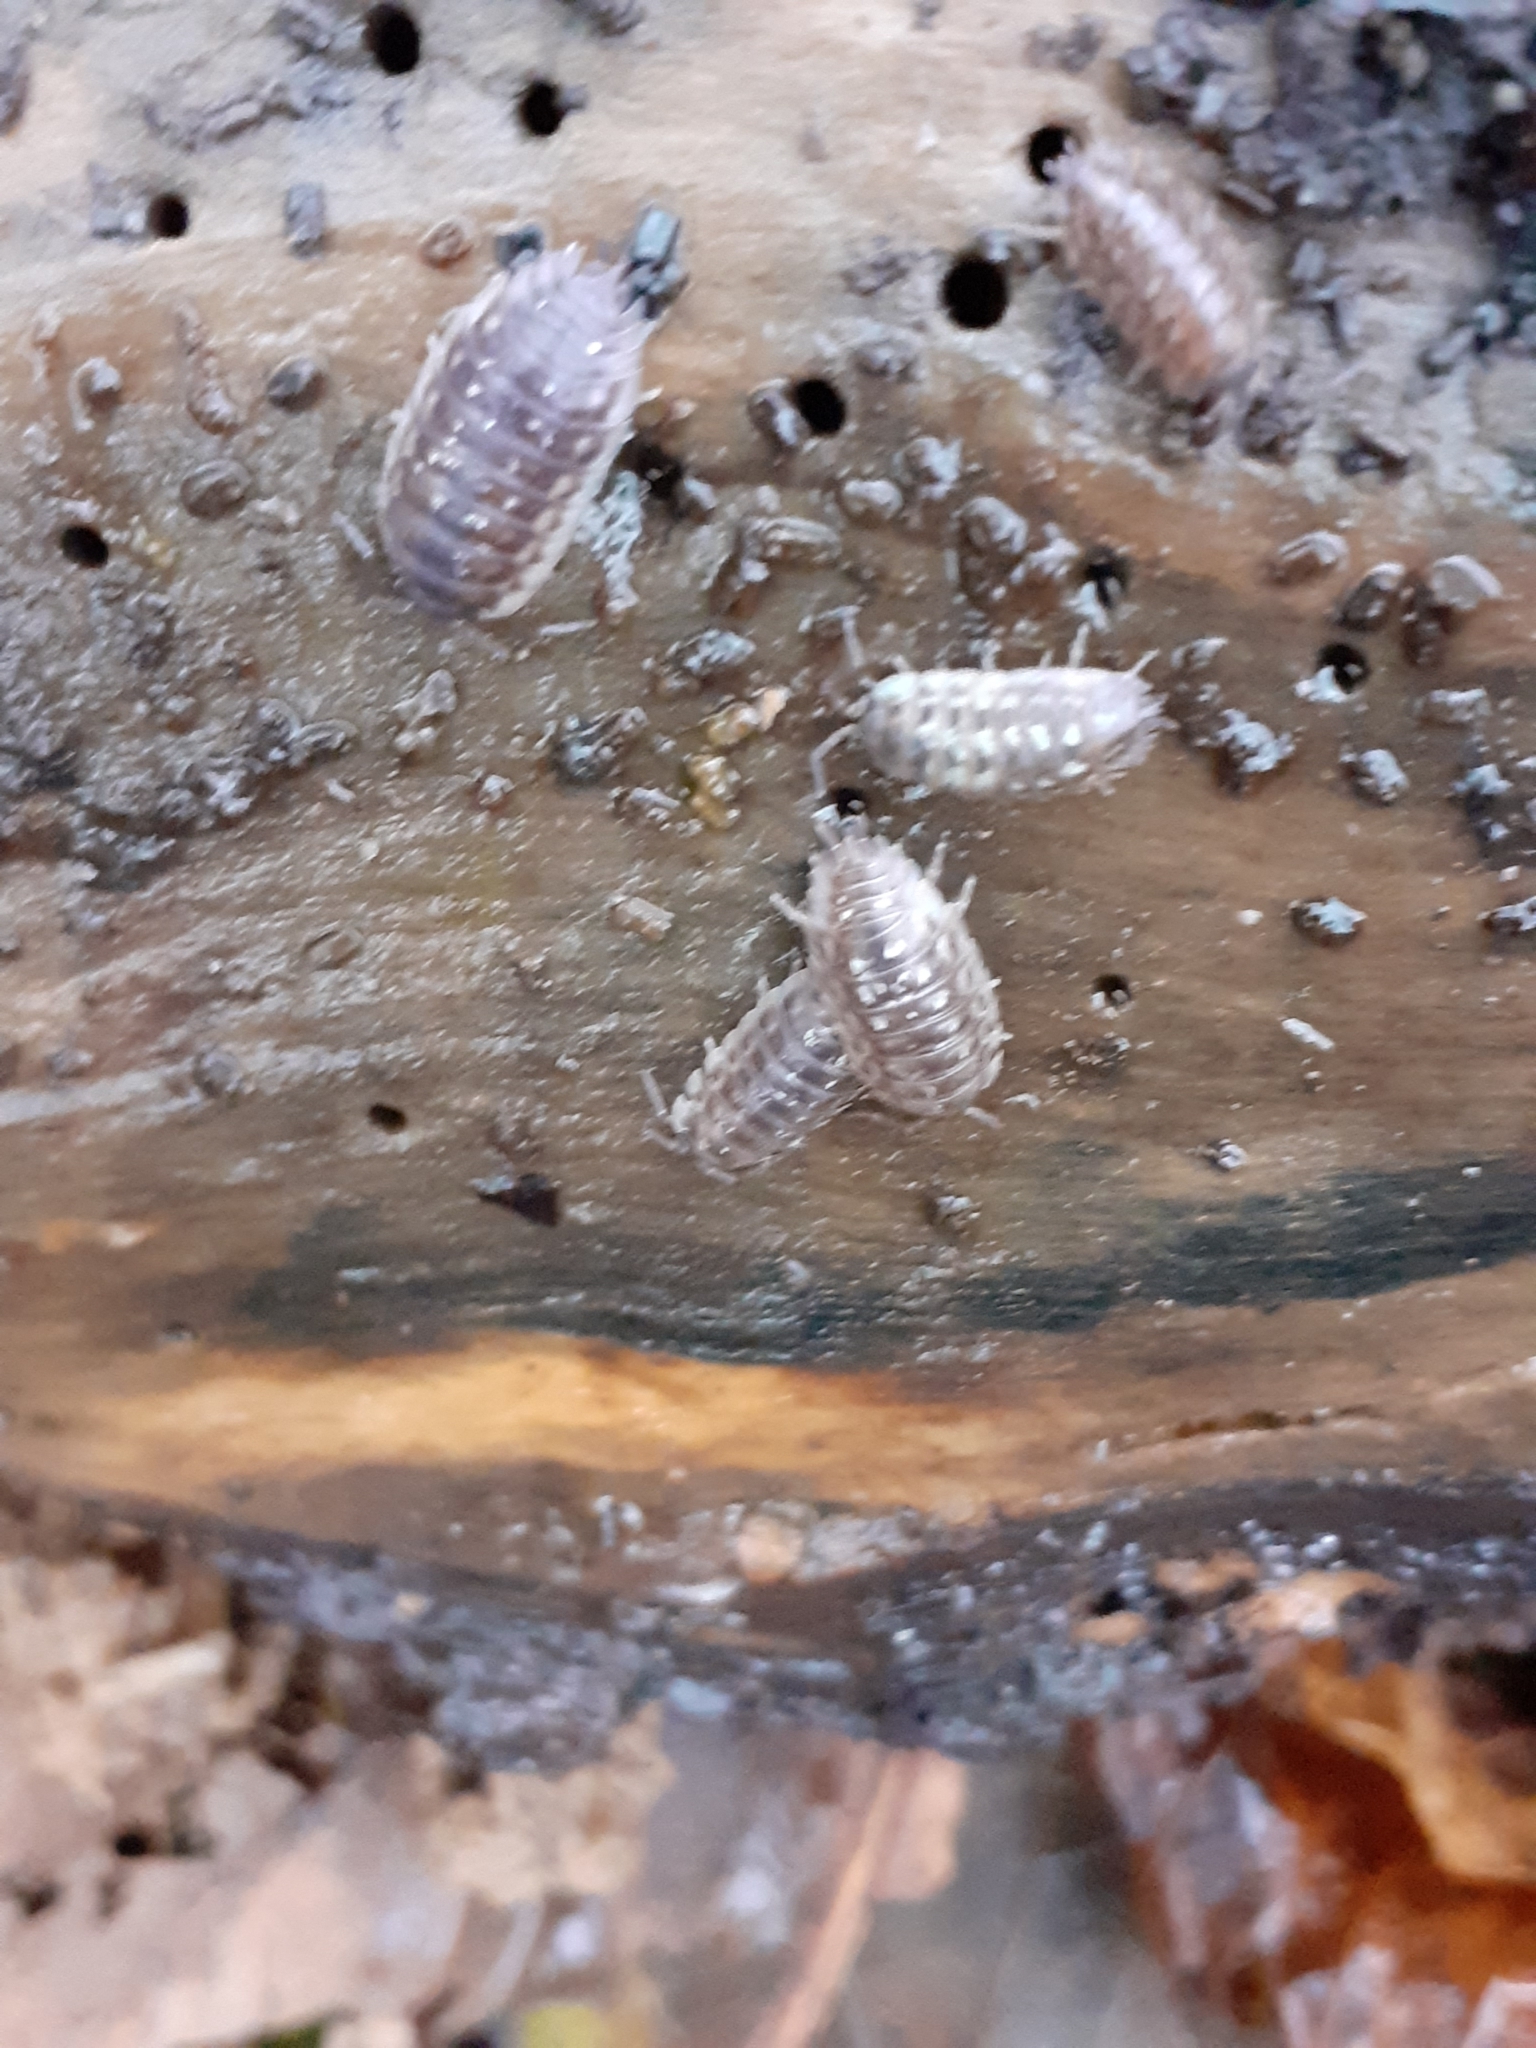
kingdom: Animalia
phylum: Arthropoda
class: Malacostraca
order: Isopoda
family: Oniscidae
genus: Oniscus
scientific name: Oniscus asellus
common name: Common shiny woodlouse
